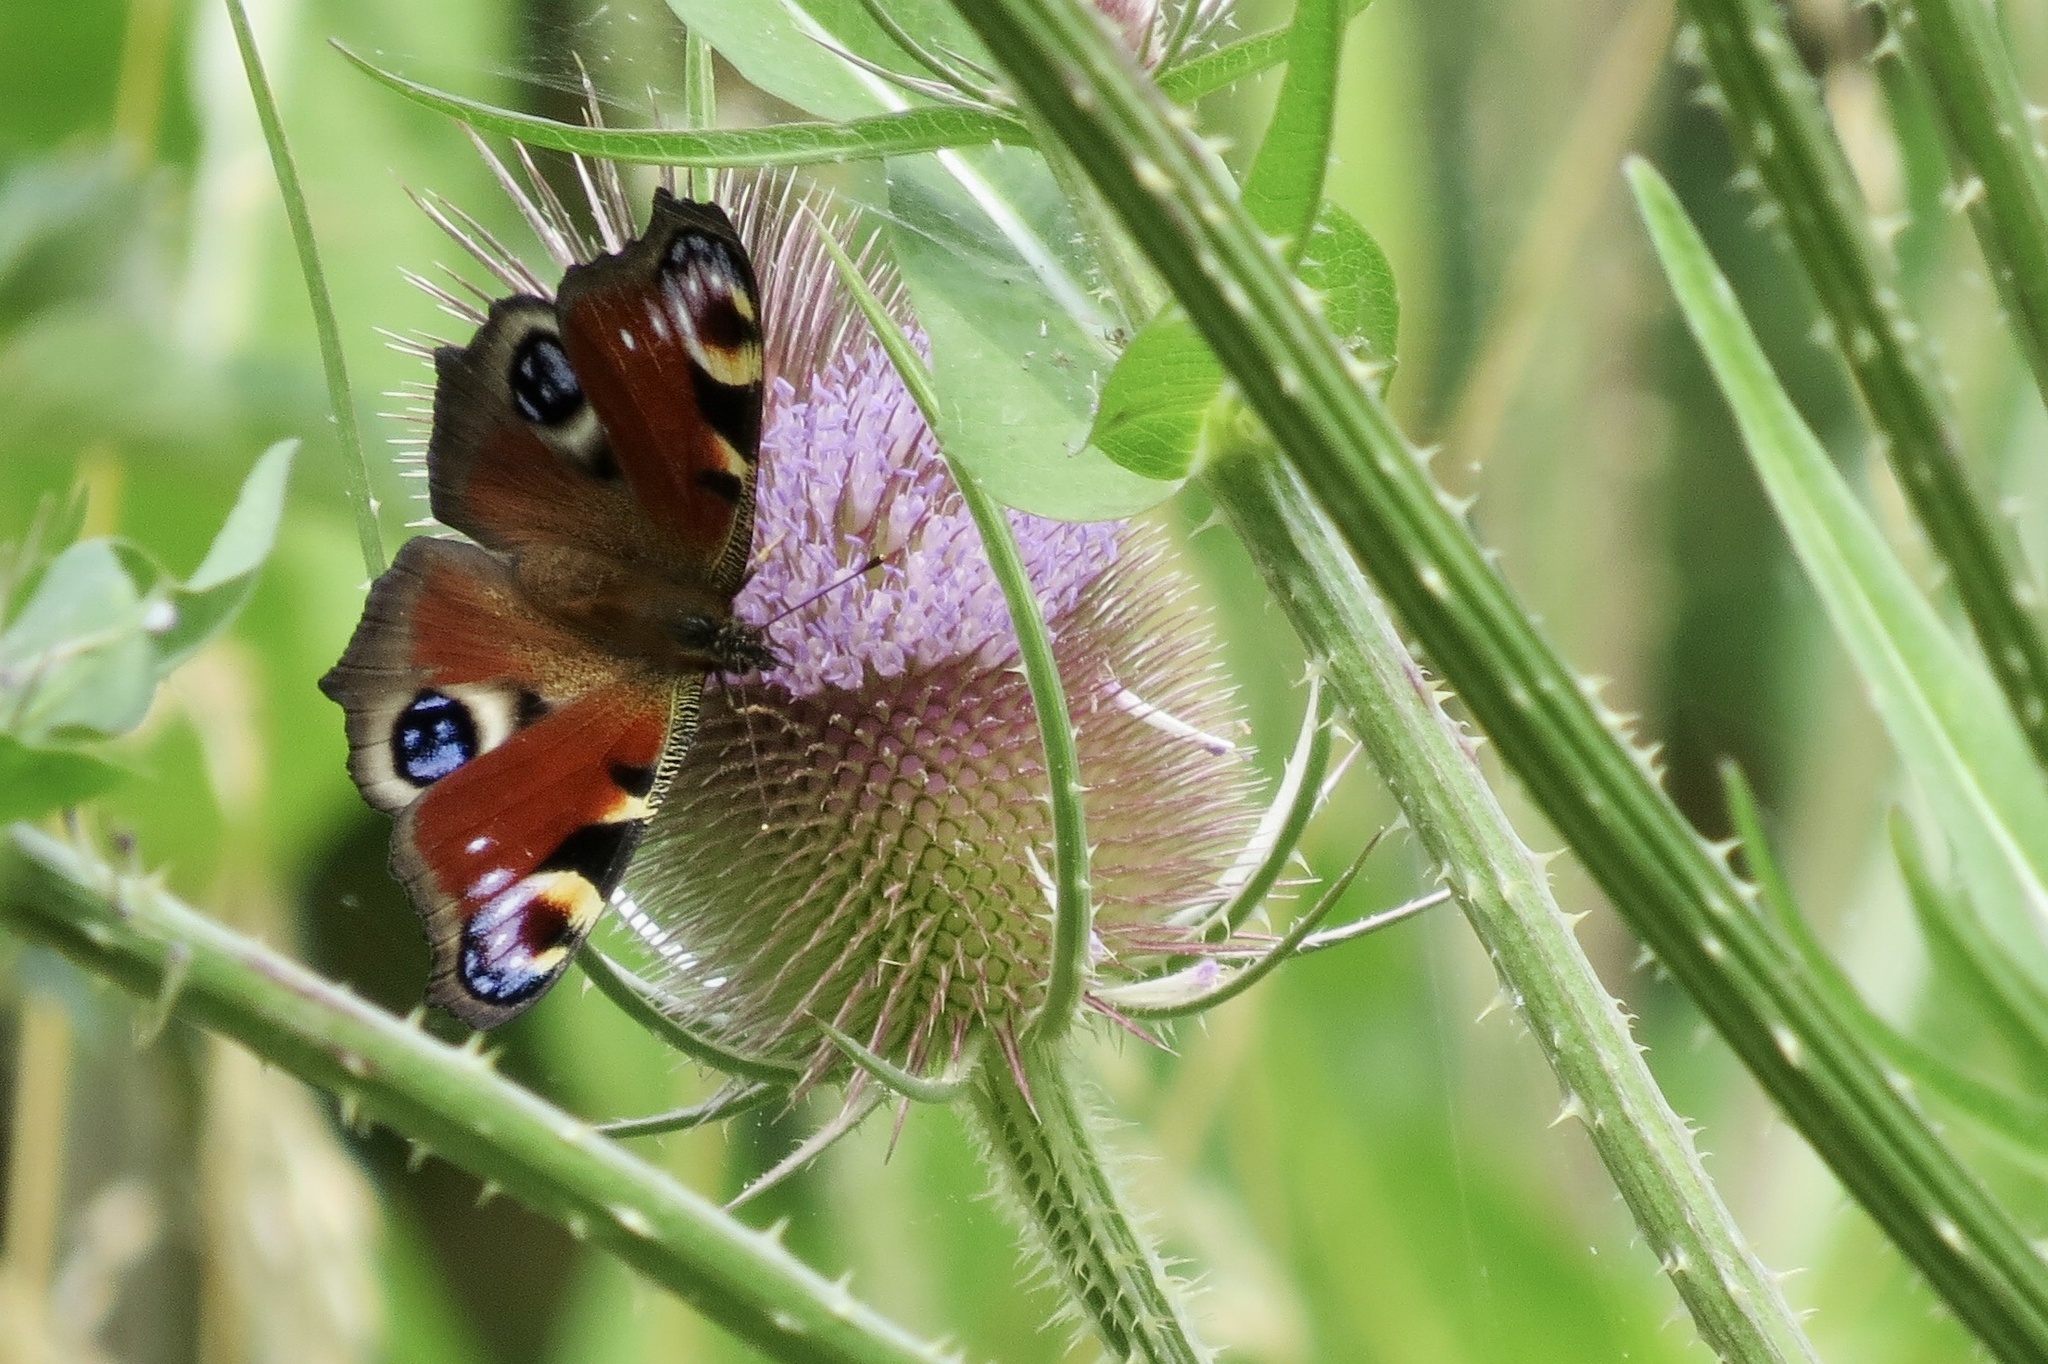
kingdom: Animalia
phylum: Arthropoda
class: Insecta
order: Lepidoptera
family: Nymphalidae
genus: Aglais
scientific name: Aglais io
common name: Peacock
